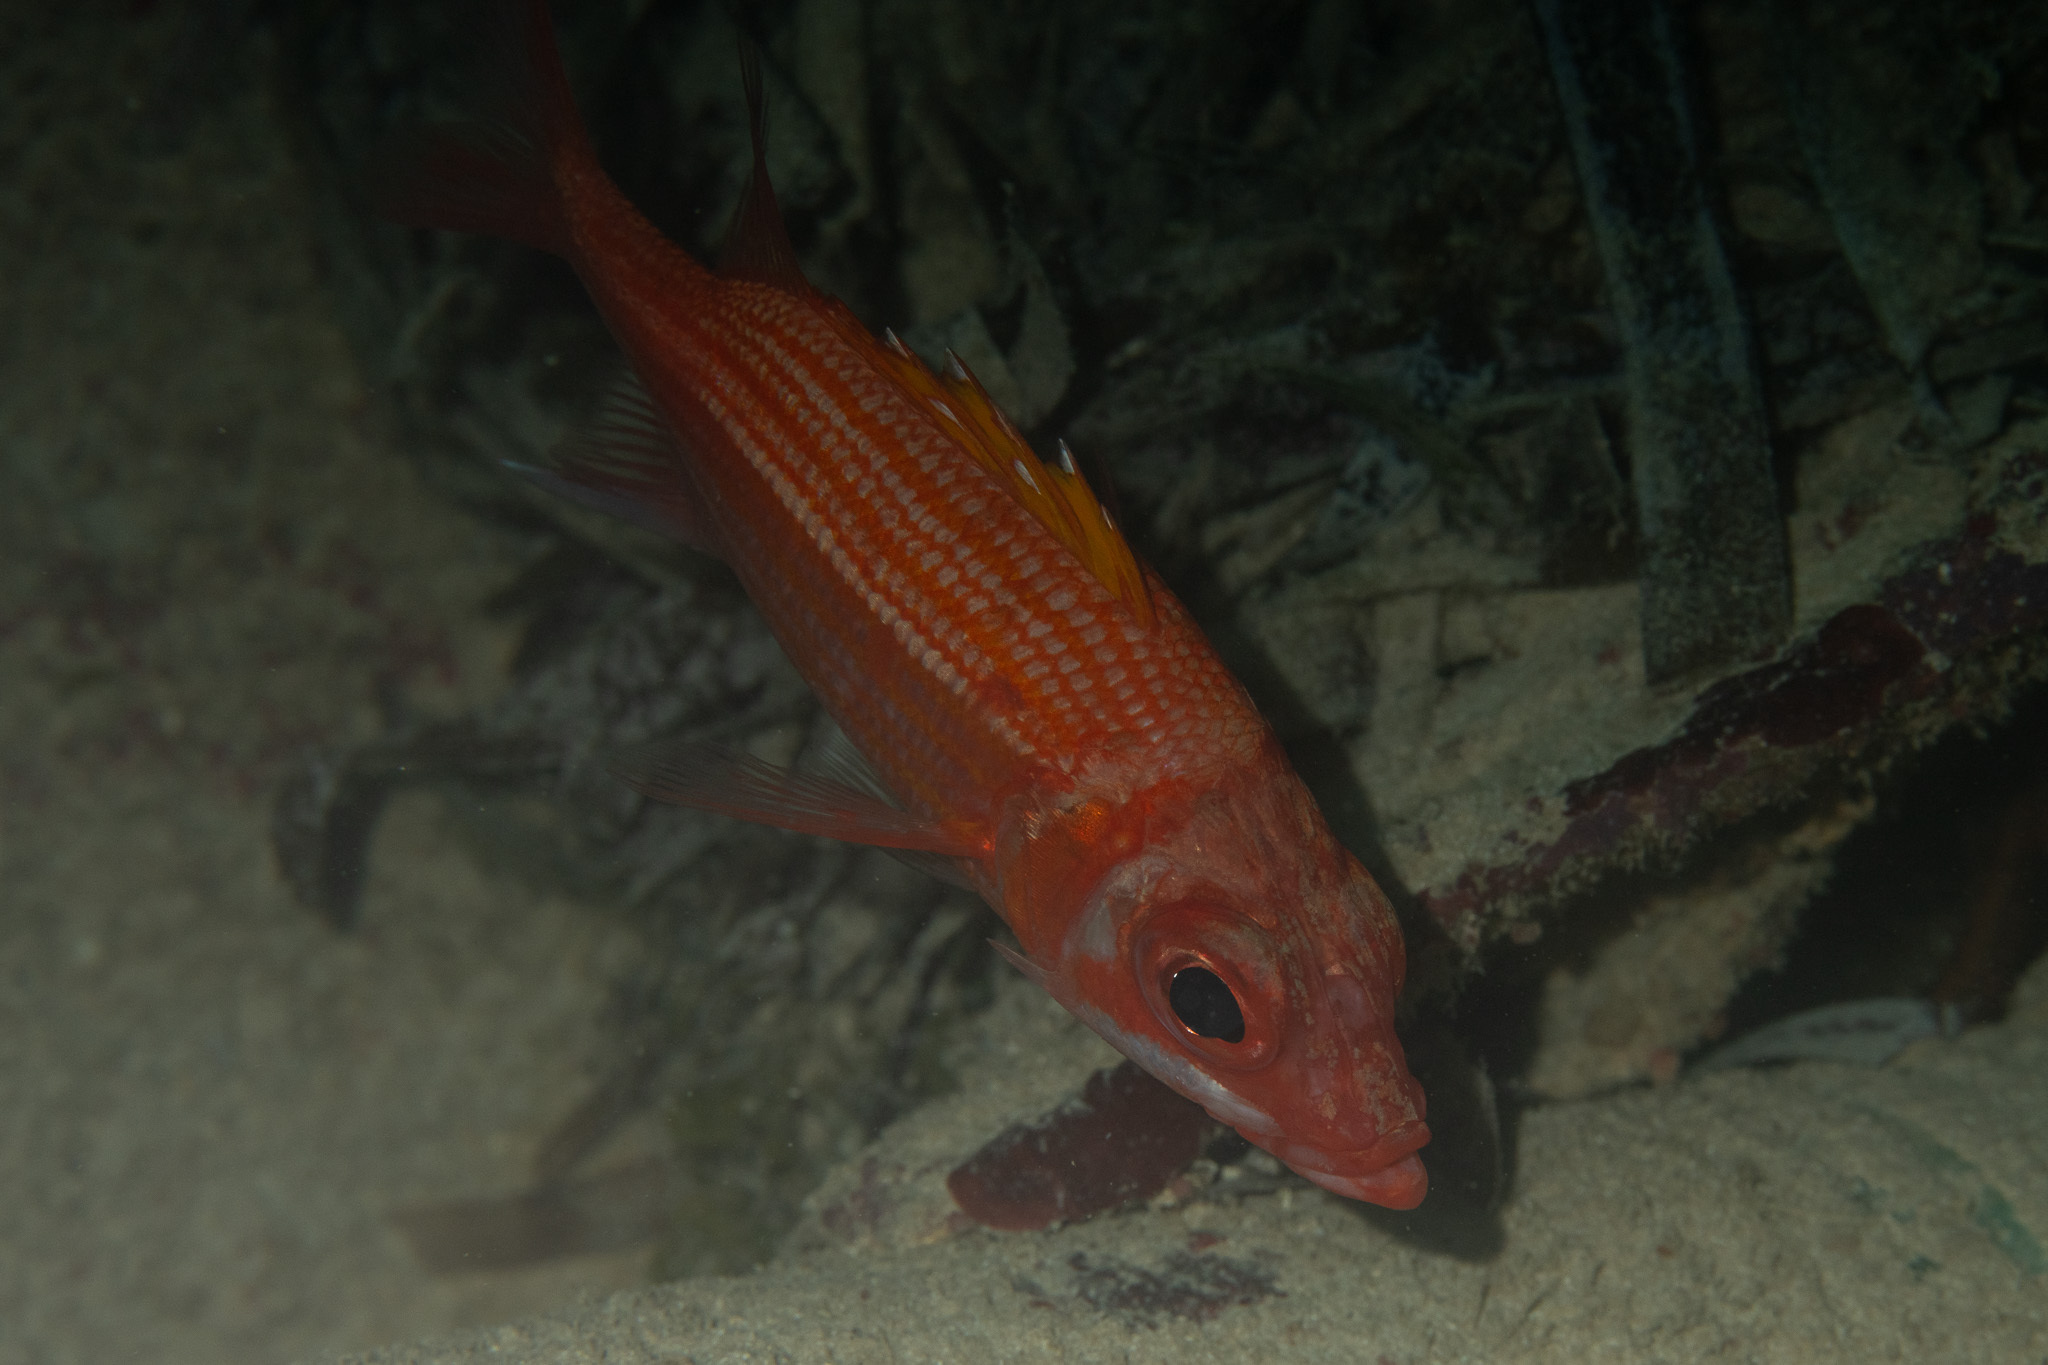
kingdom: Animalia
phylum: Chordata
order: Beryciformes
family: Holocentridae
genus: Neoniphon
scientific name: Neoniphon marianus
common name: Longjaw squirrelfish
